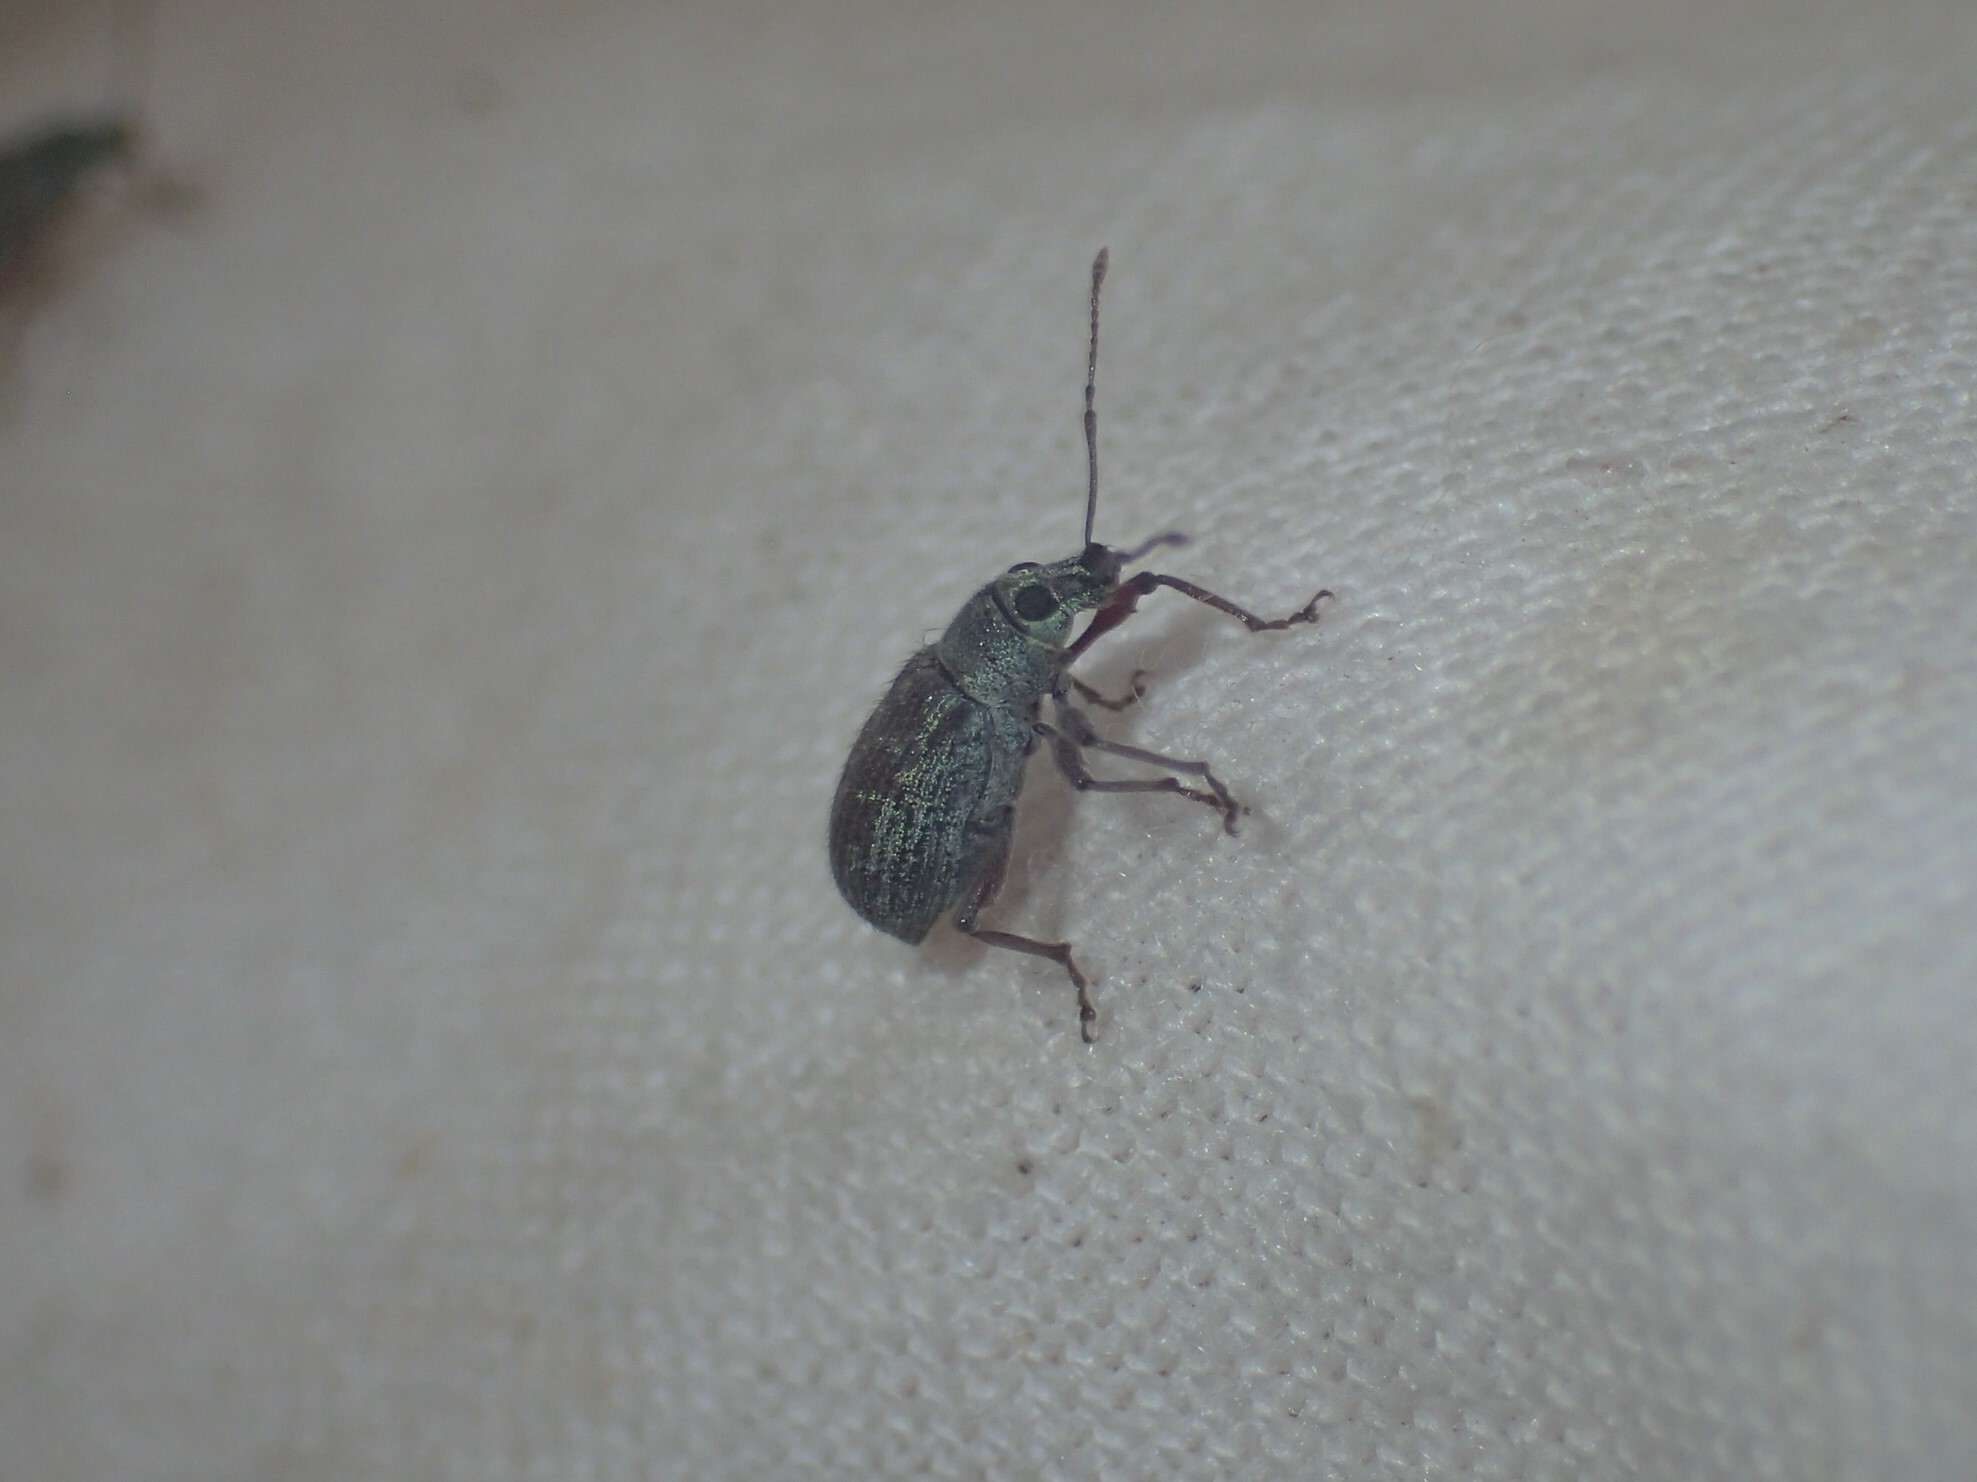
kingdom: Animalia
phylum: Arthropoda
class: Insecta
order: Coleoptera
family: Curculionidae
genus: Cyrtepistomus
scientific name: Cyrtepistomus castaneus
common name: Weevil
